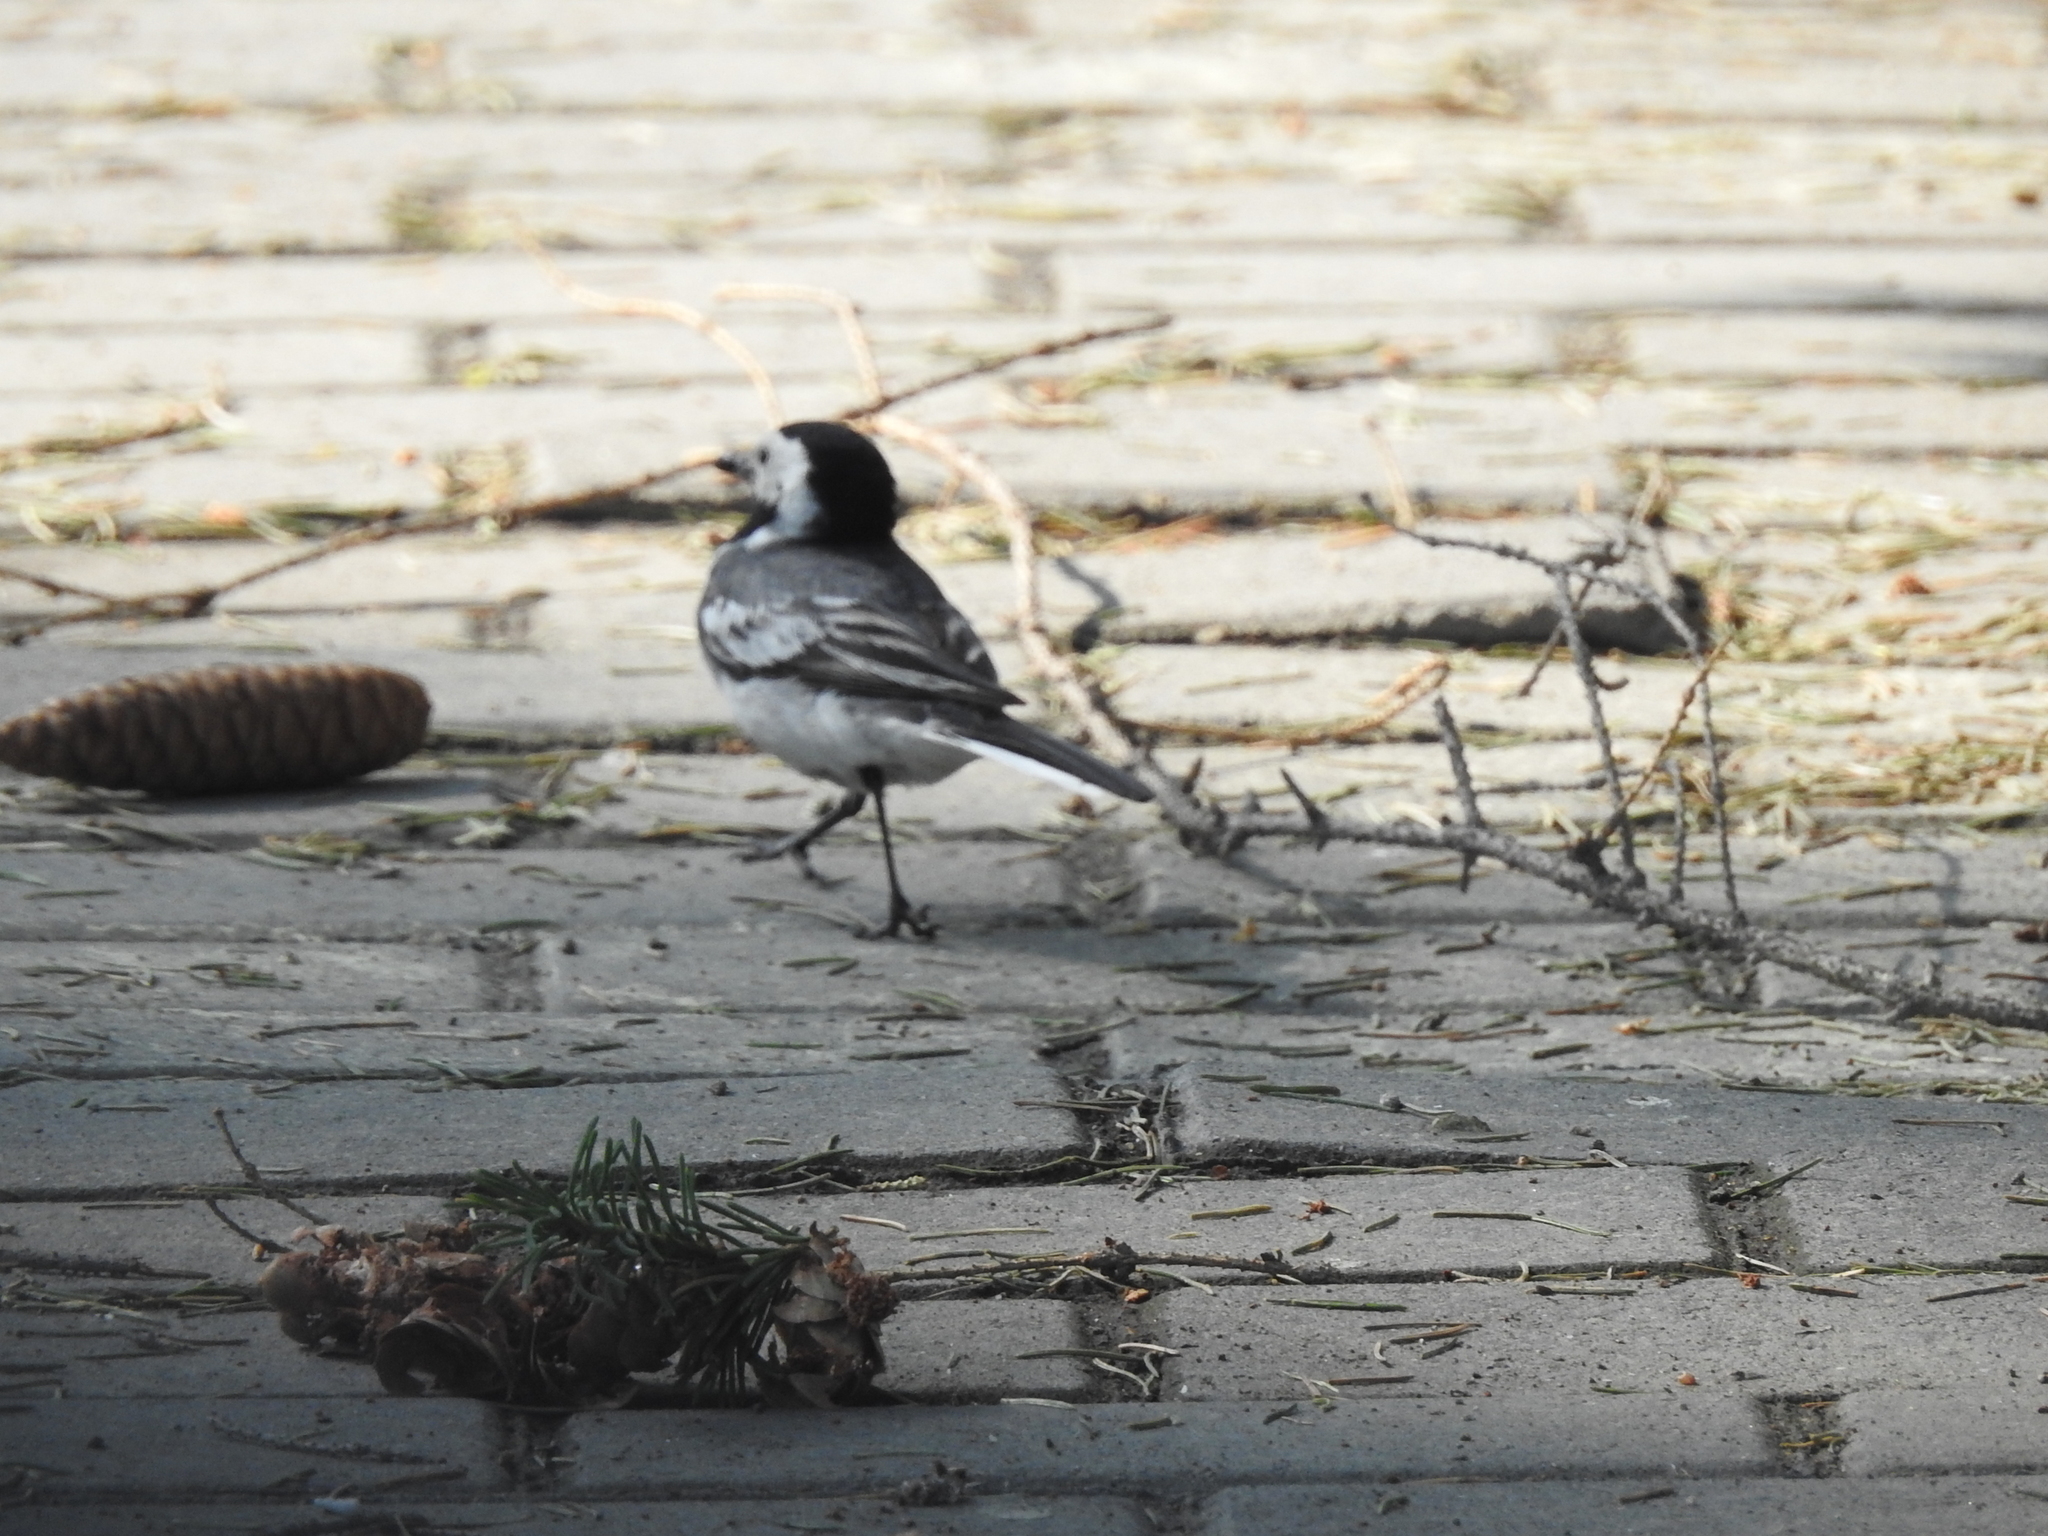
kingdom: Animalia
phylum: Chordata
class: Aves
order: Passeriformes
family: Motacillidae
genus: Motacilla
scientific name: Motacilla alba
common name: White wagtail
